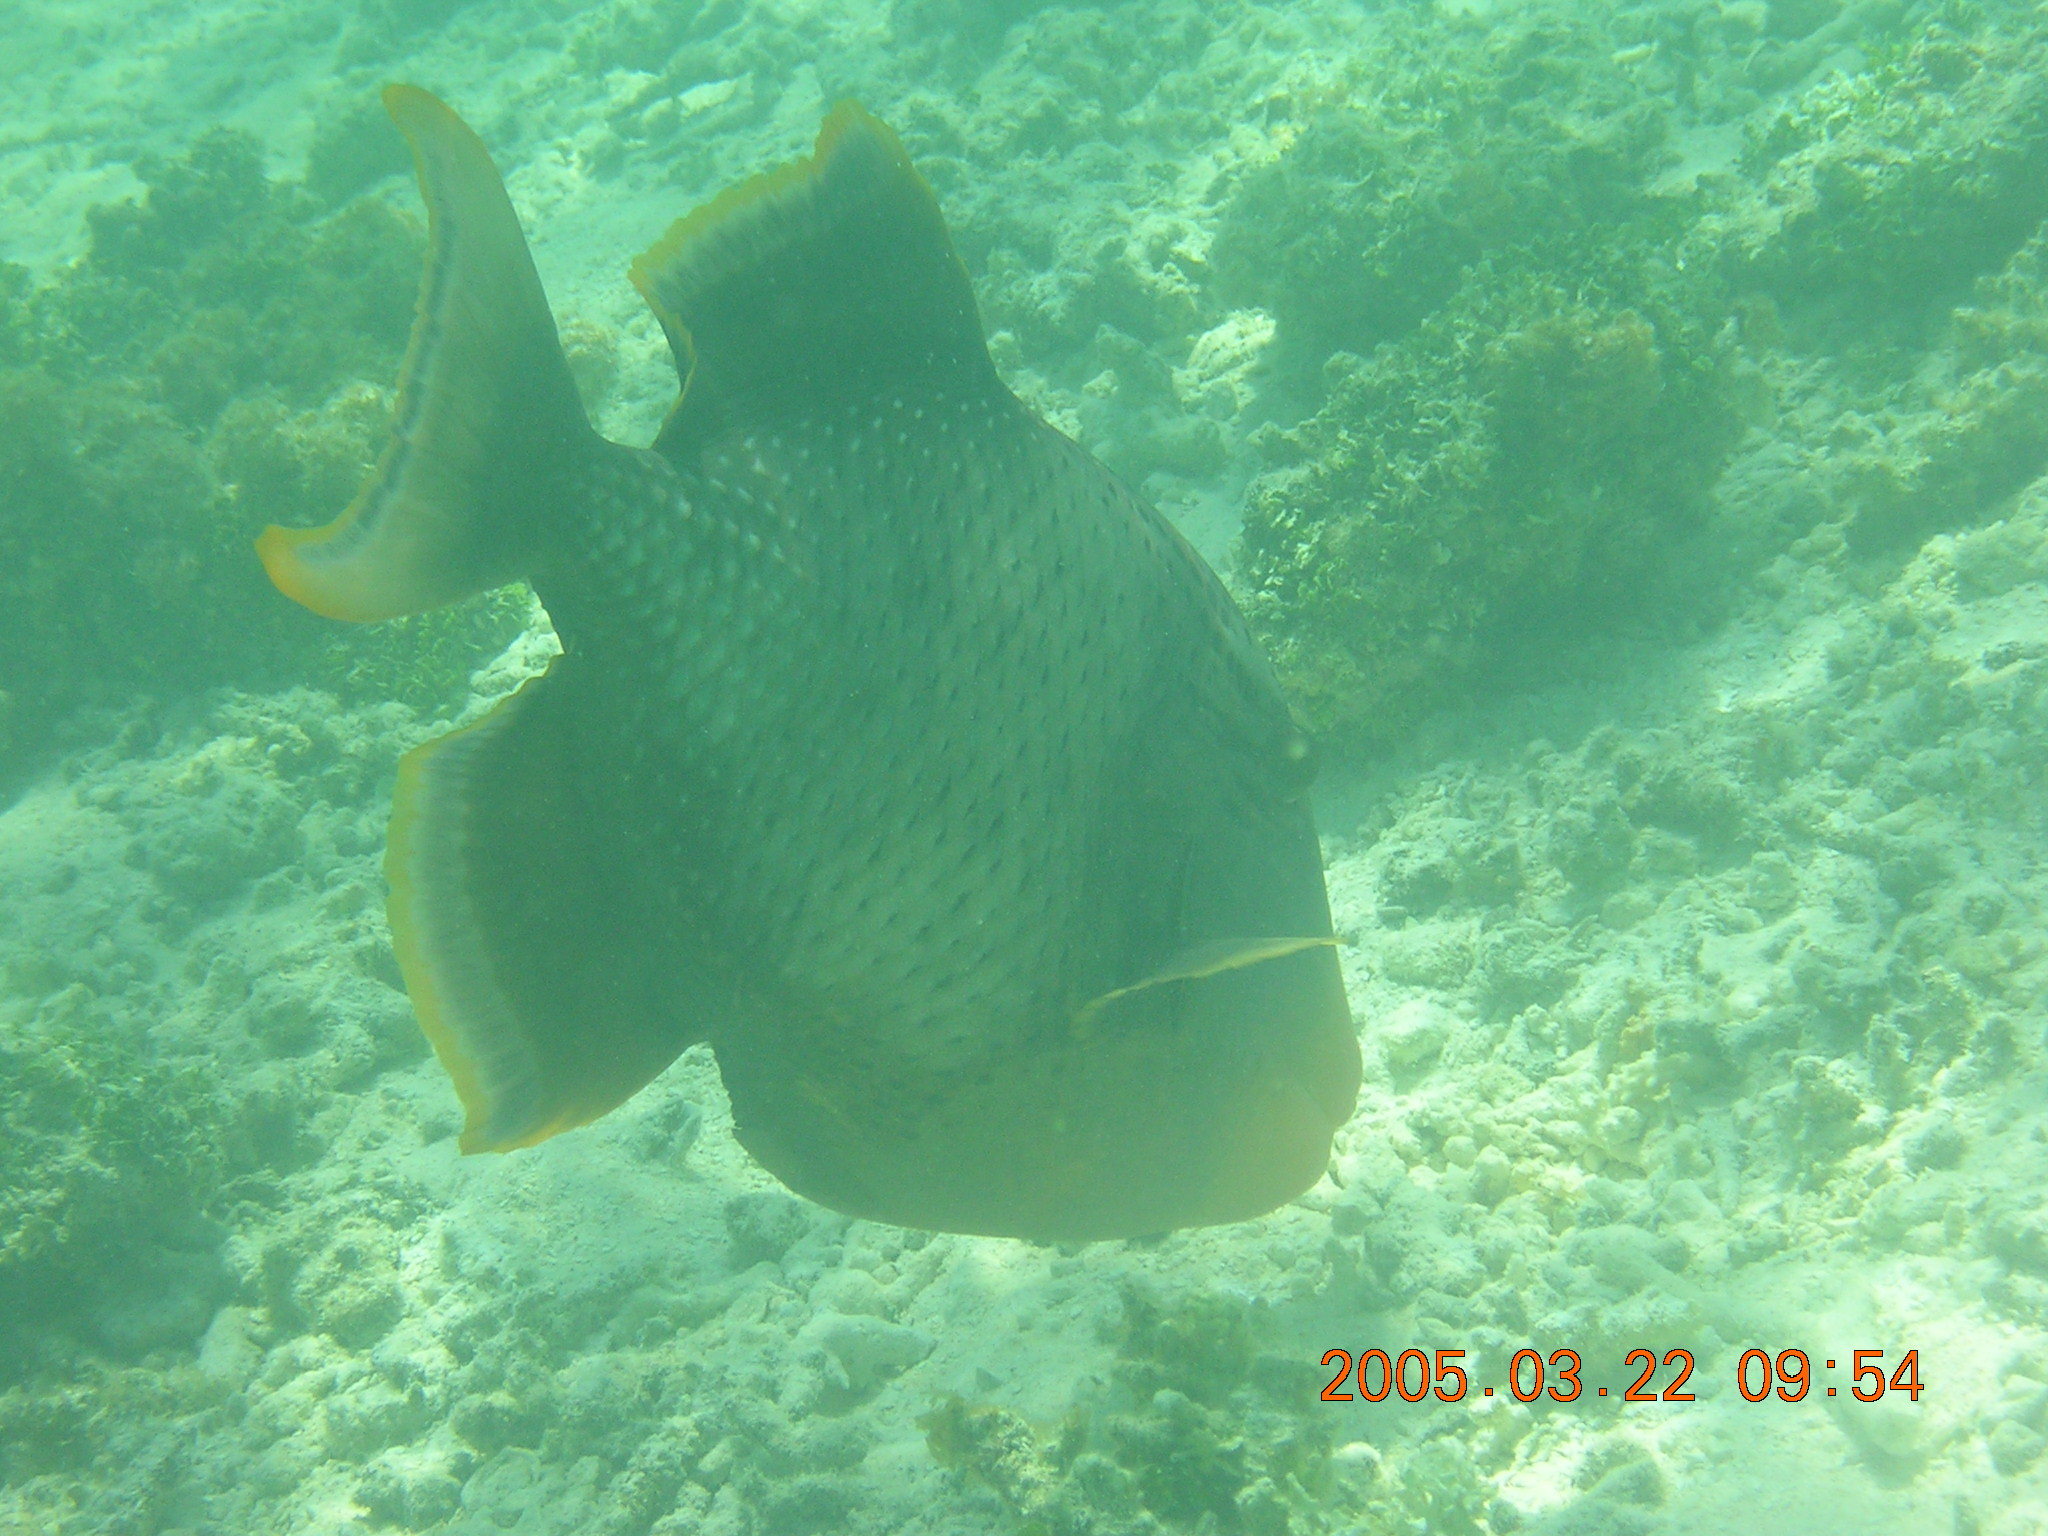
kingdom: Animalia
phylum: Chordata
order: Tetraodontiformes
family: Balistidae
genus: Pseudobalistes
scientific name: Pseudobalistes flavimarginatus
